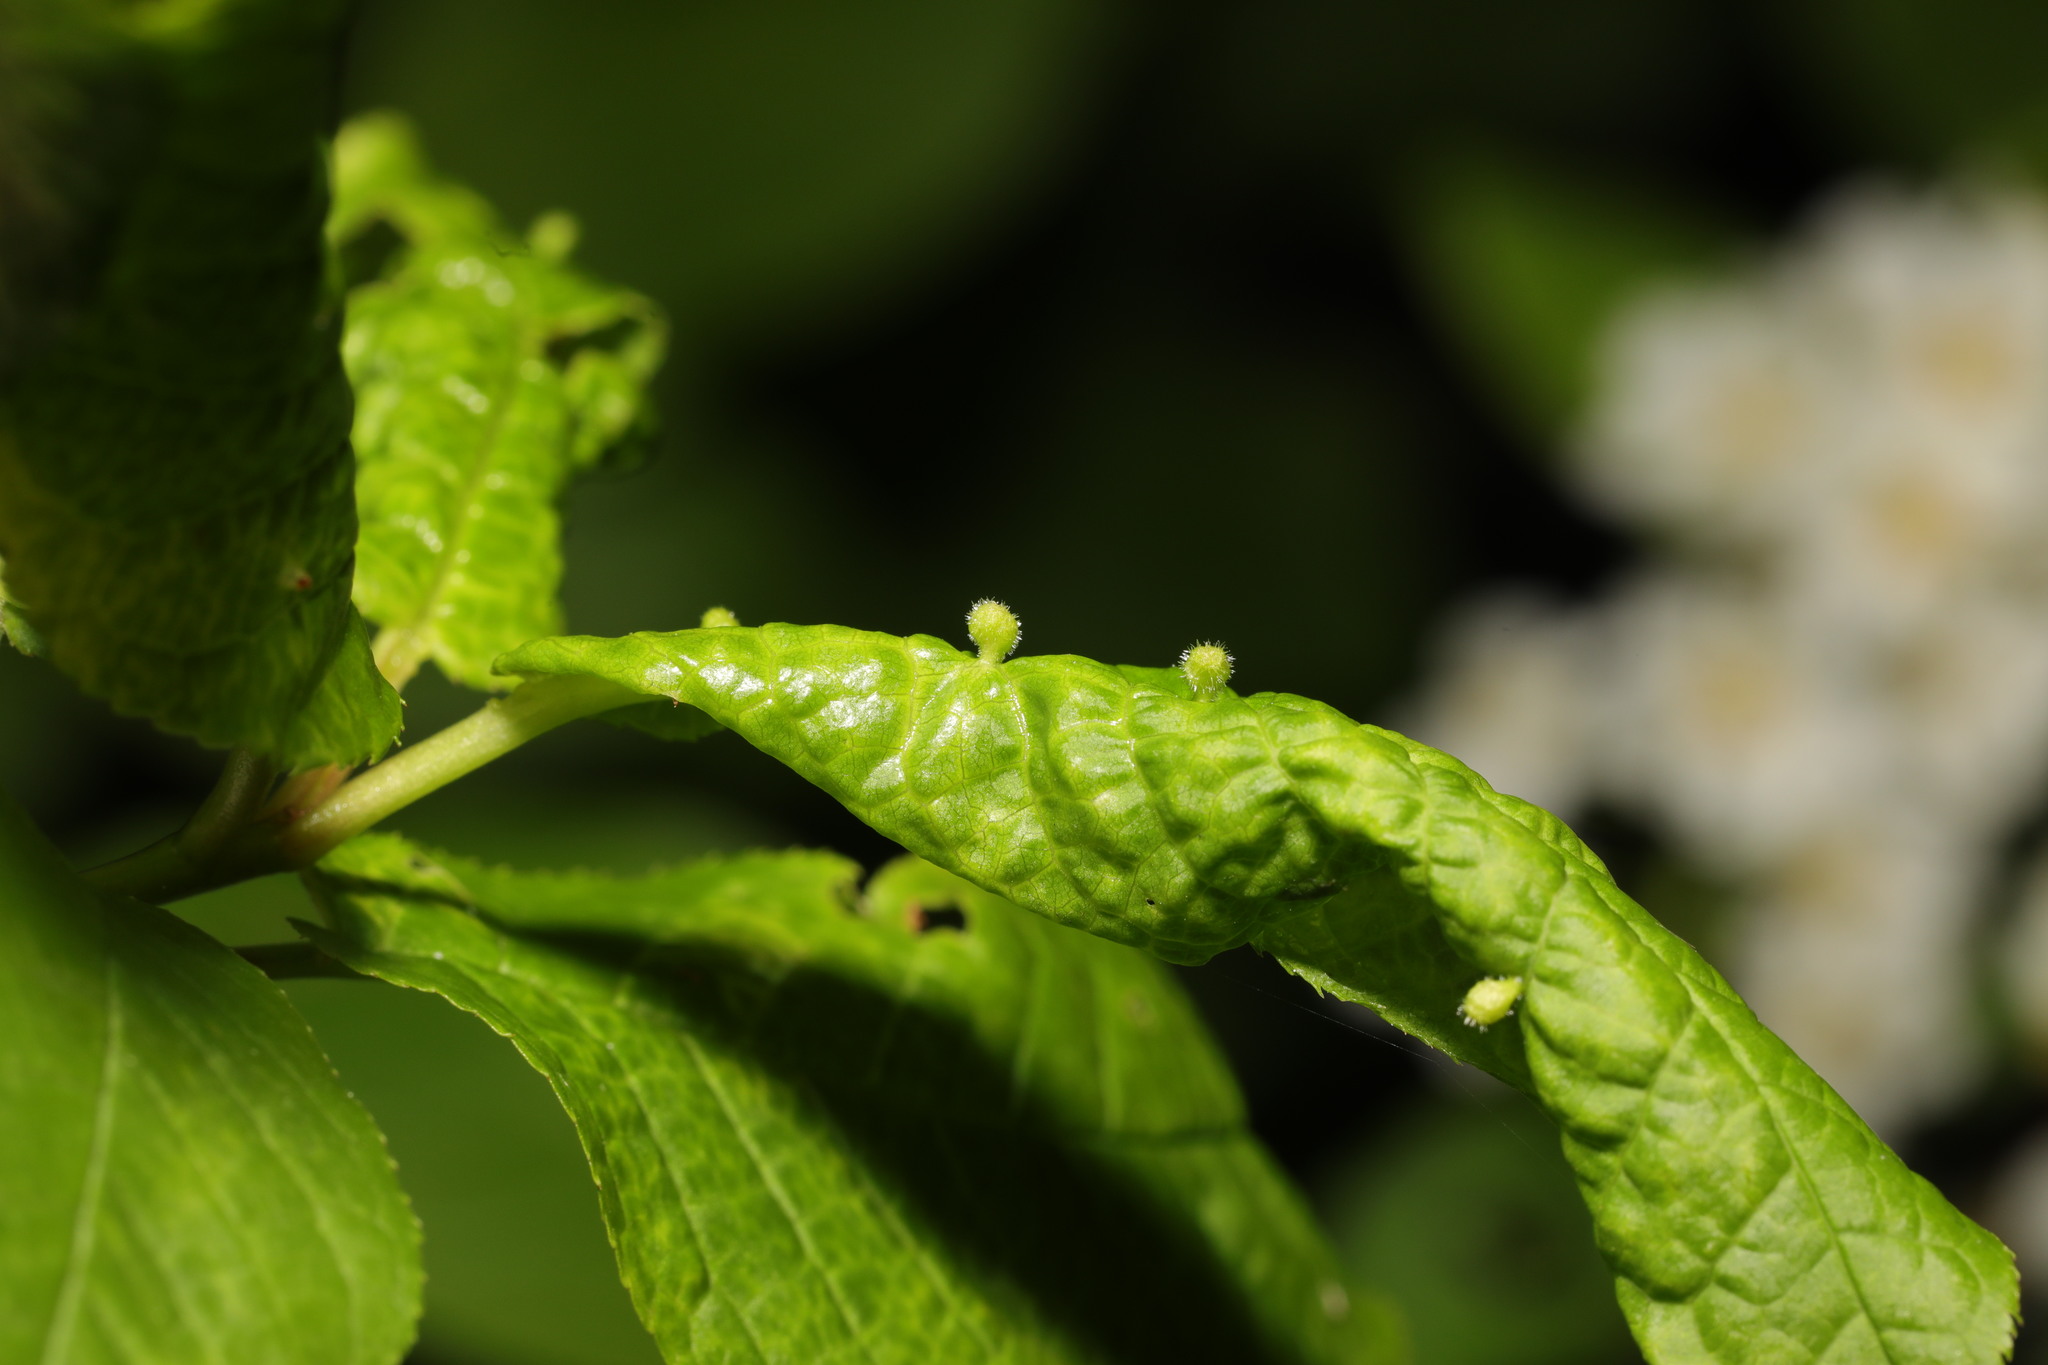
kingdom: Animalia
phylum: Arthropoda
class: Arachnida
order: Trombidiformes
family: Eriophyidae
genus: Phyllocoptes
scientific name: Phyllocoptes eupadi
